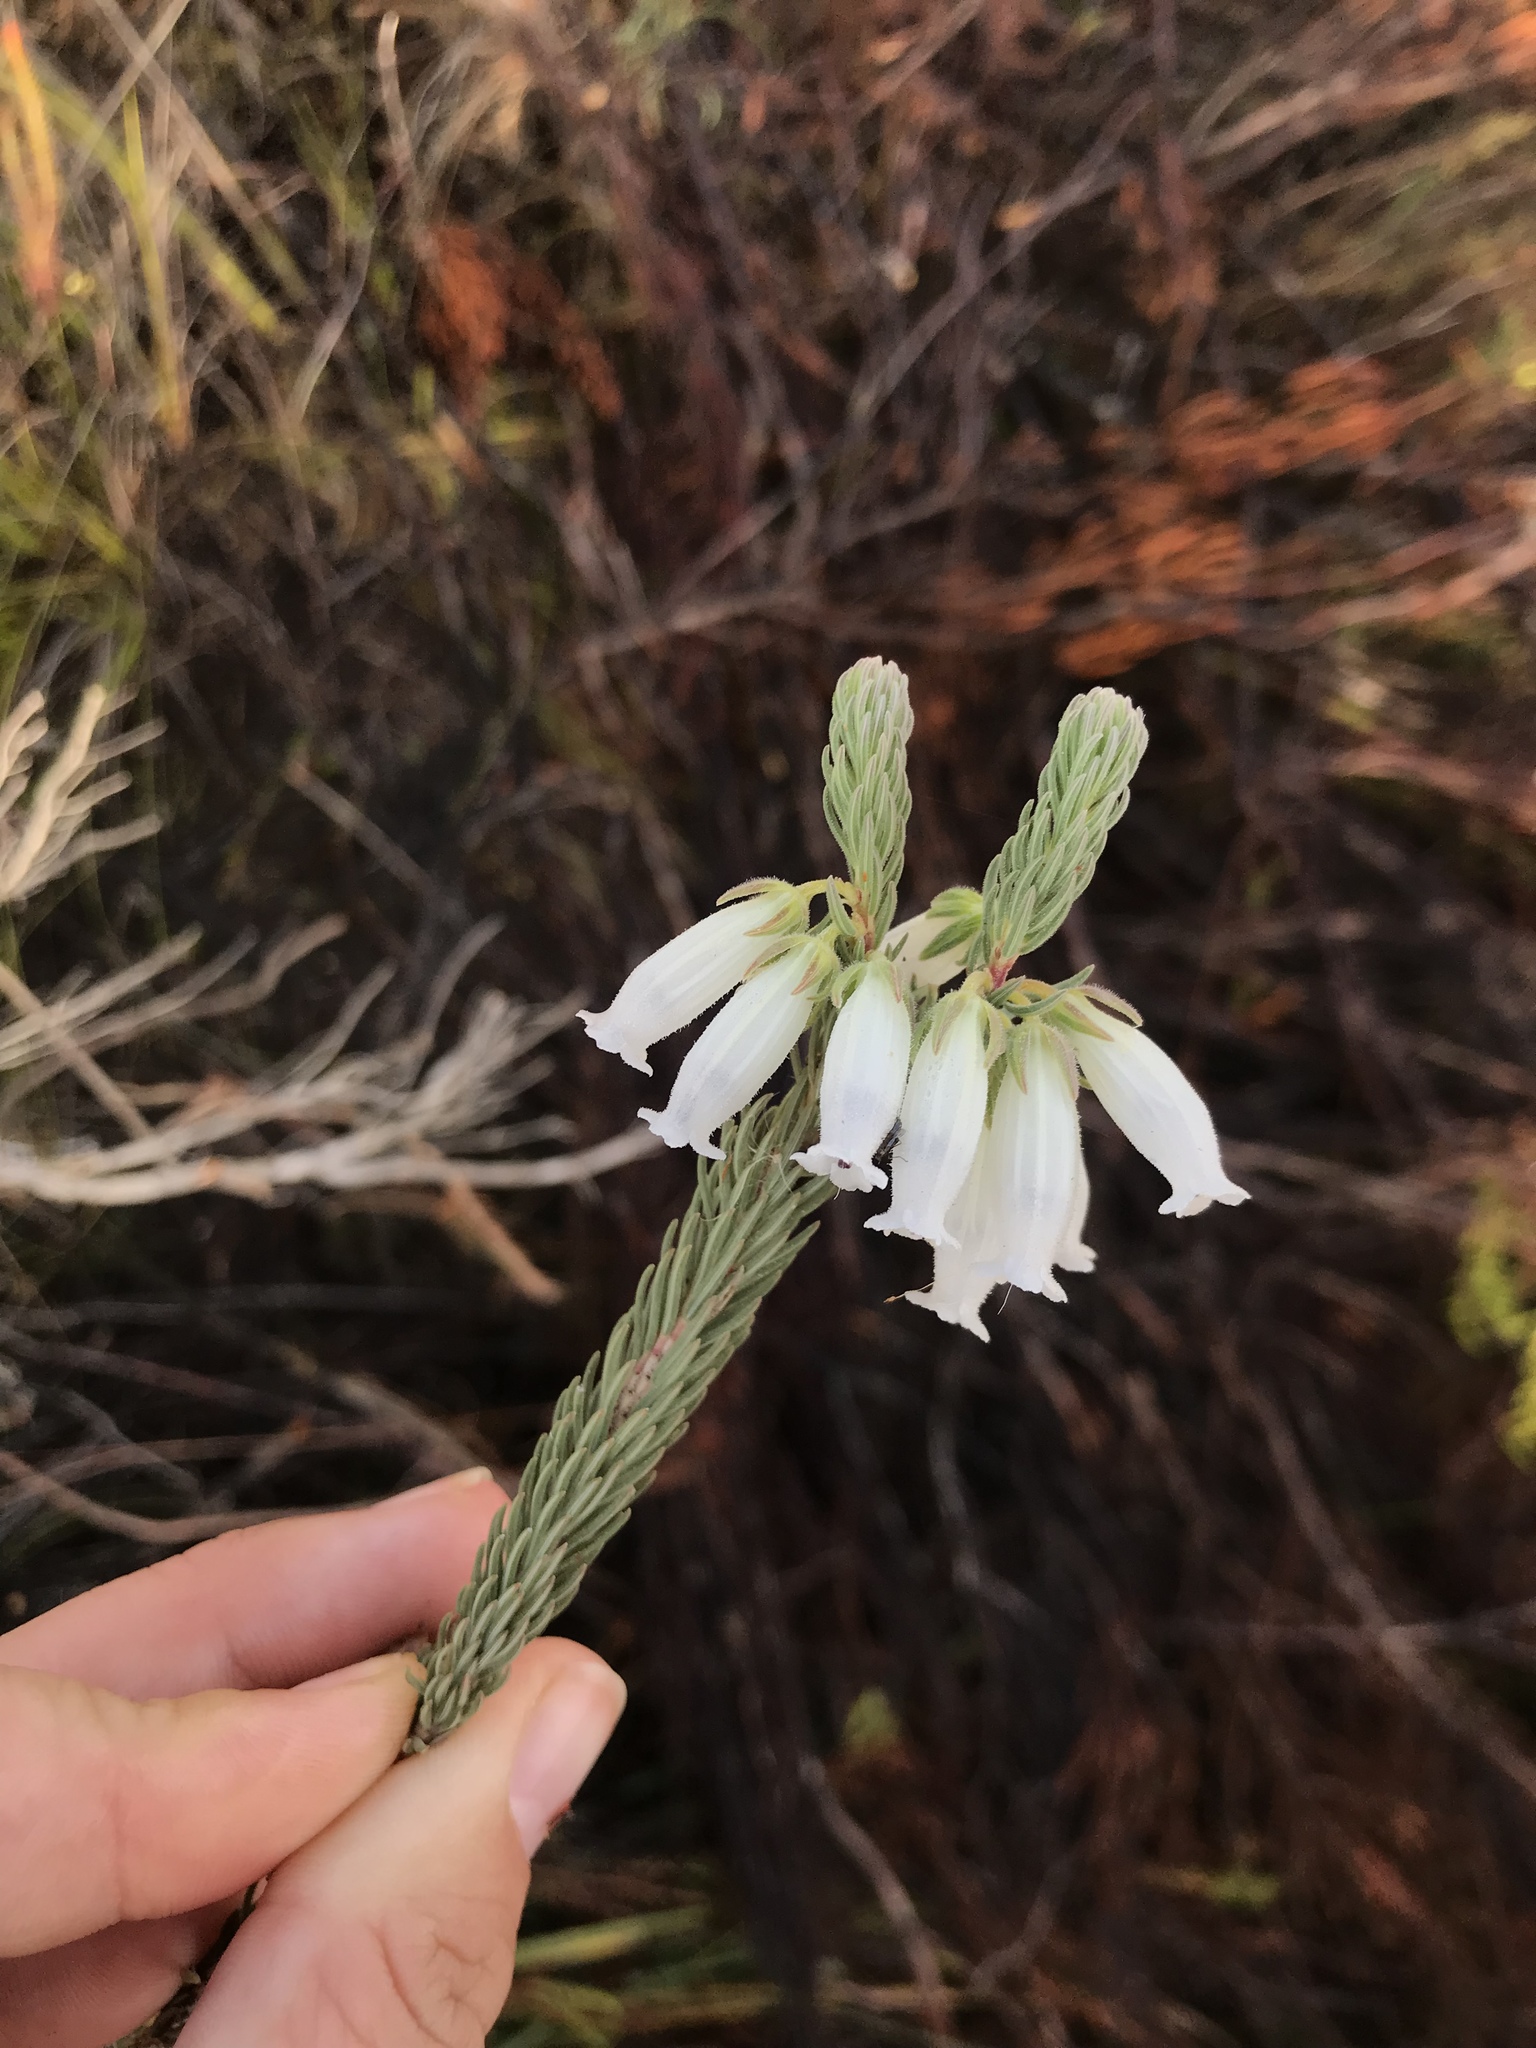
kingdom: Plantae
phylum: Tracheophyta
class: Magnoliopsida
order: Ericales
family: Ericaceae
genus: Erica
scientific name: Erica viscaria
